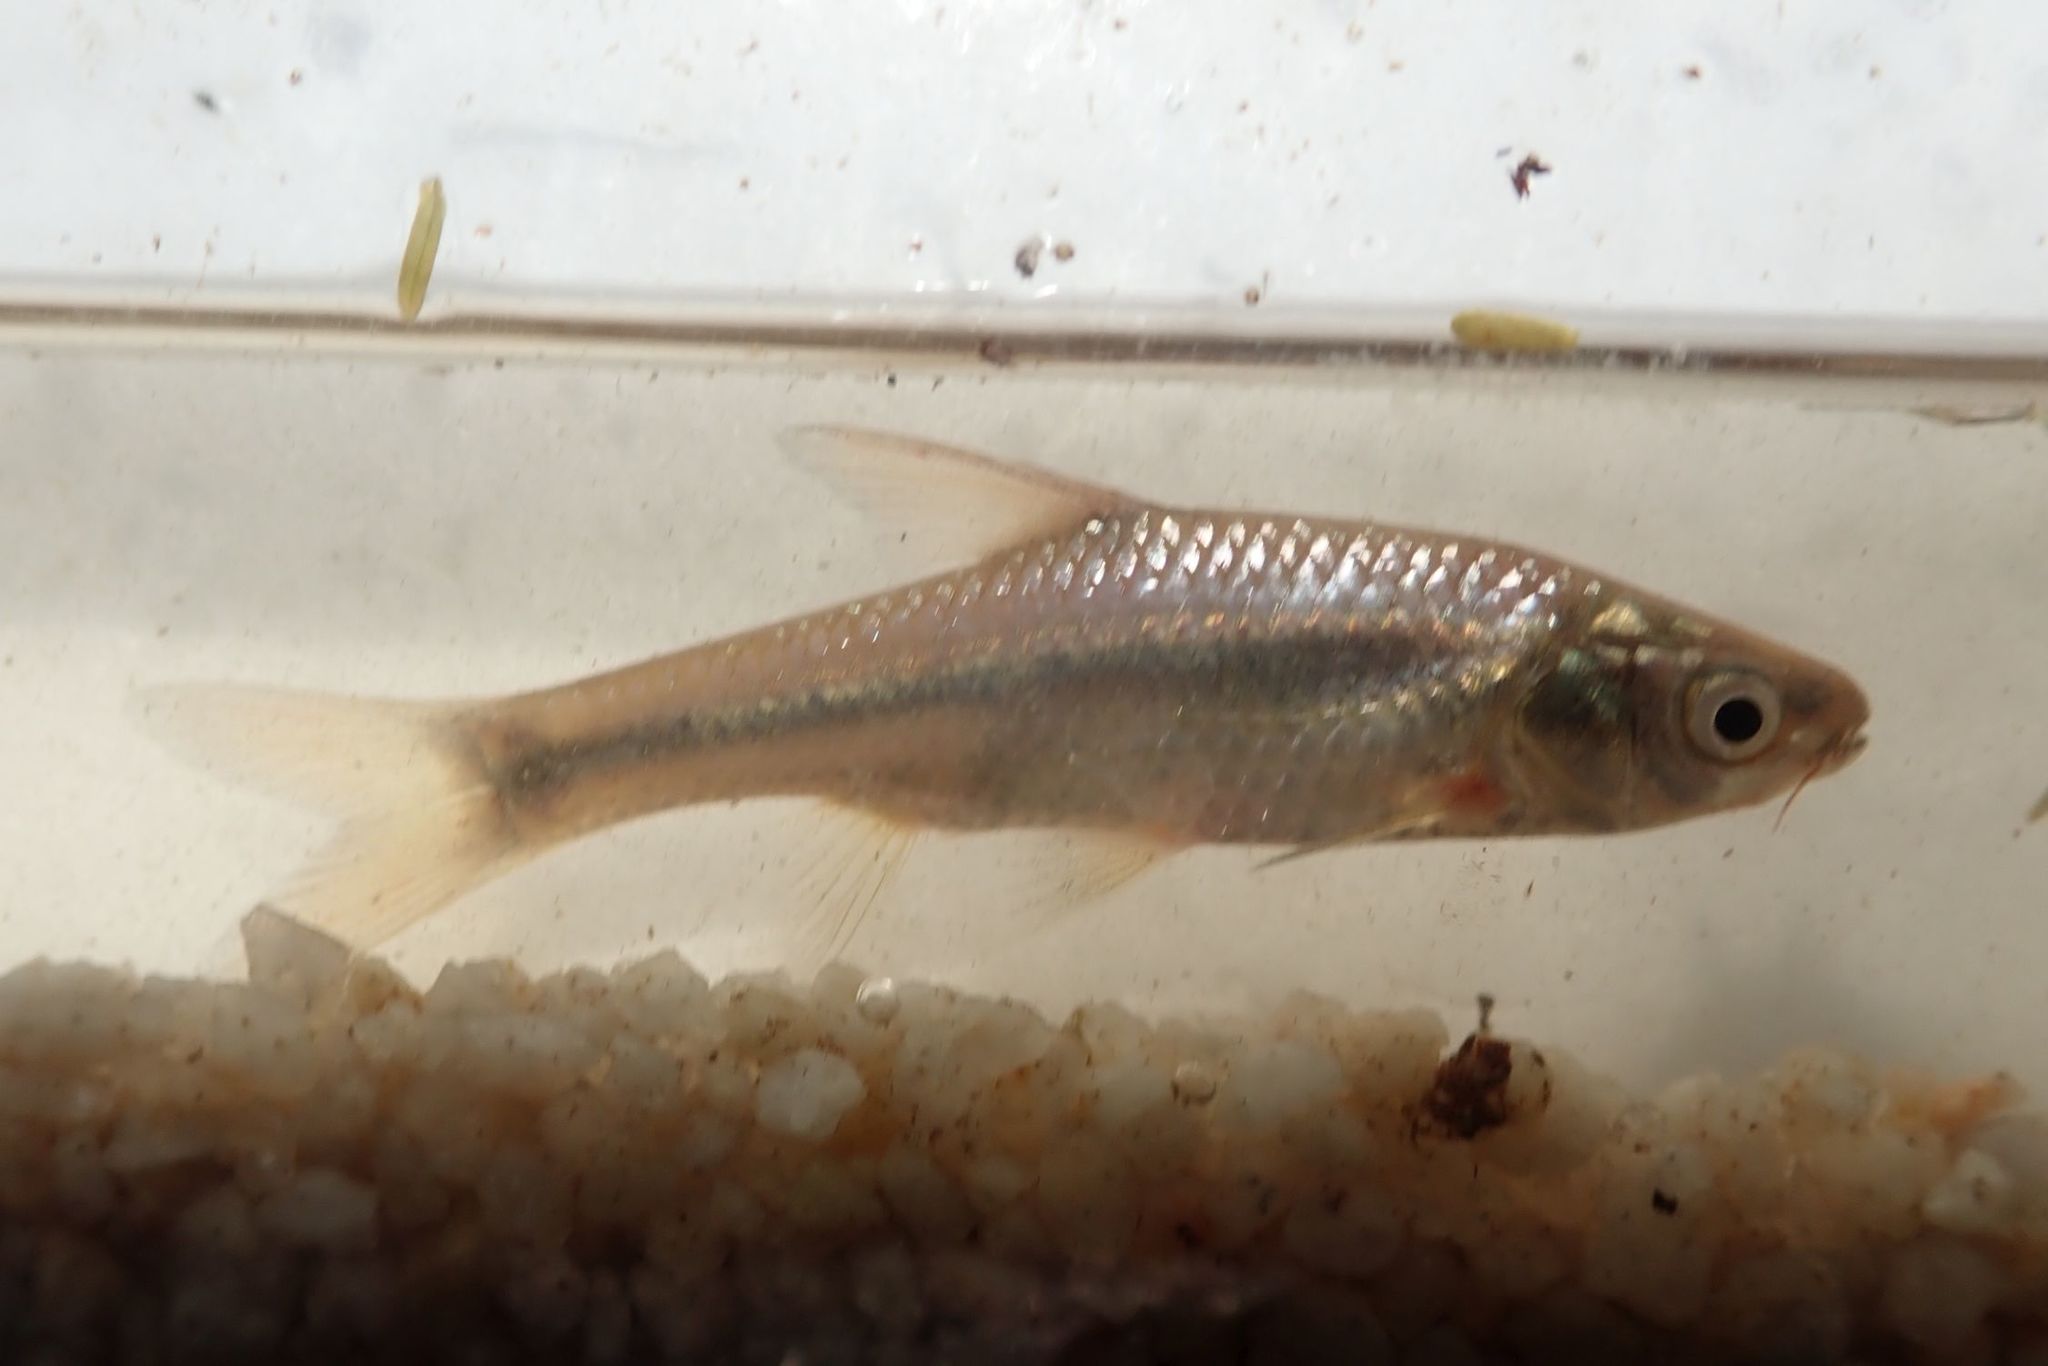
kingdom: Animalia
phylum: Chordata
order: Cypriniformes
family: Cyprinidae
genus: Enteromius
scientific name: Enteromius paludinosus
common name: Straightfin barb
